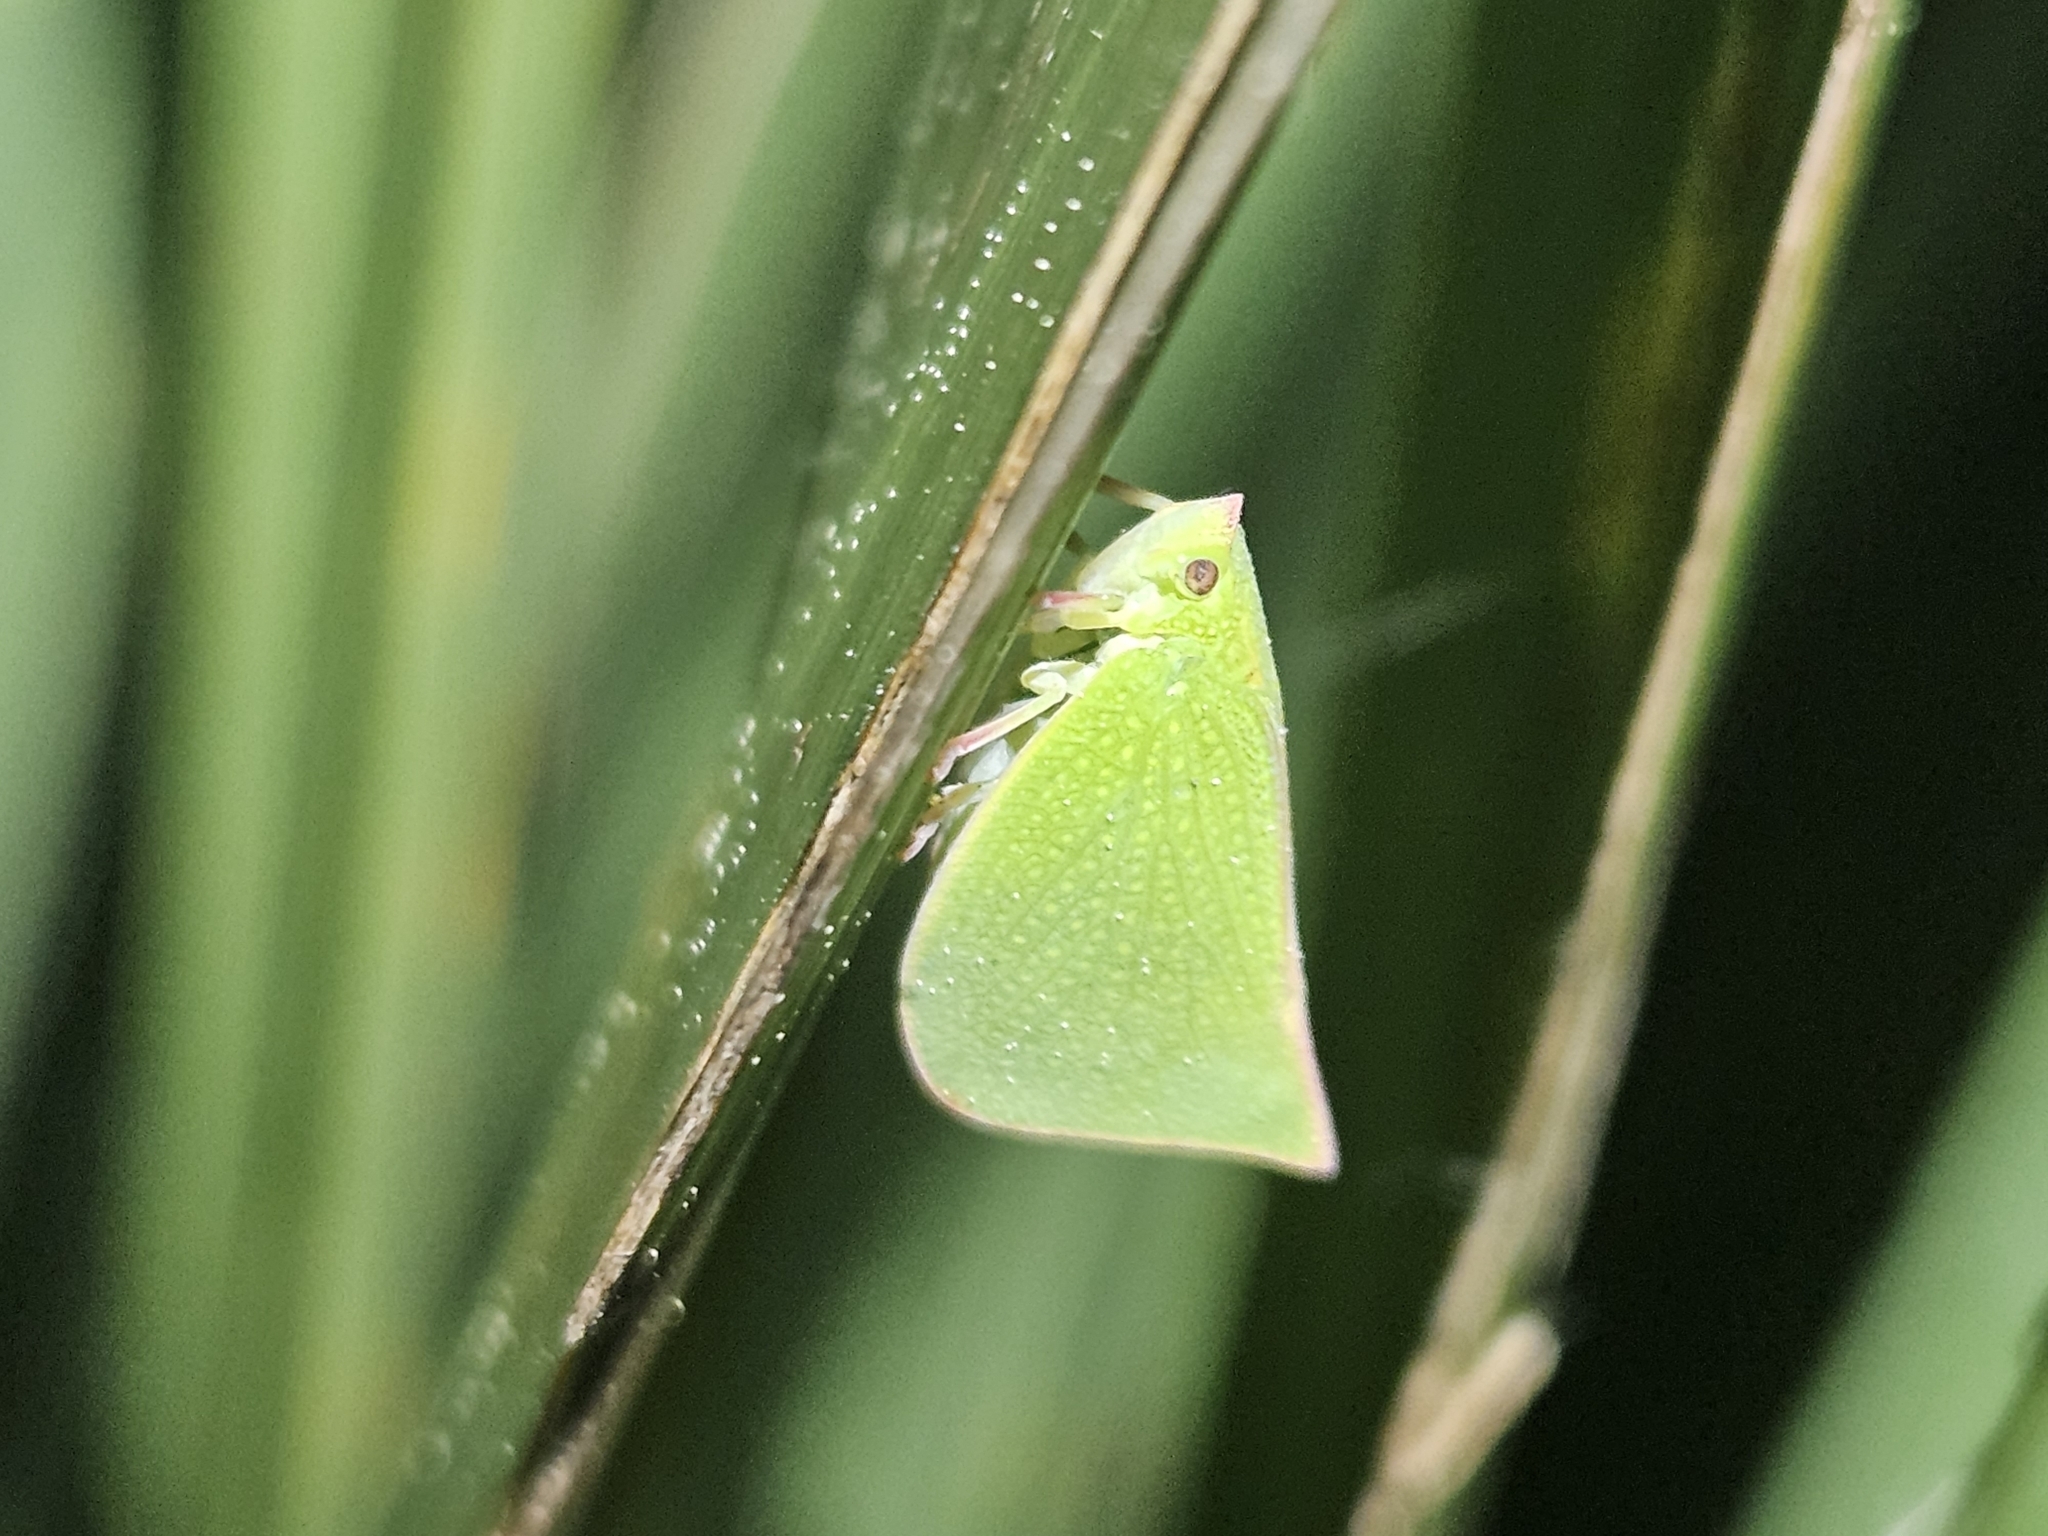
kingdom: Animalia
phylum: Arthropoda
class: Insecta
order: Hemiptera
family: Flatidae
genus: Siphanta
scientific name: Siphanta acuta
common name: Torpedo bug
